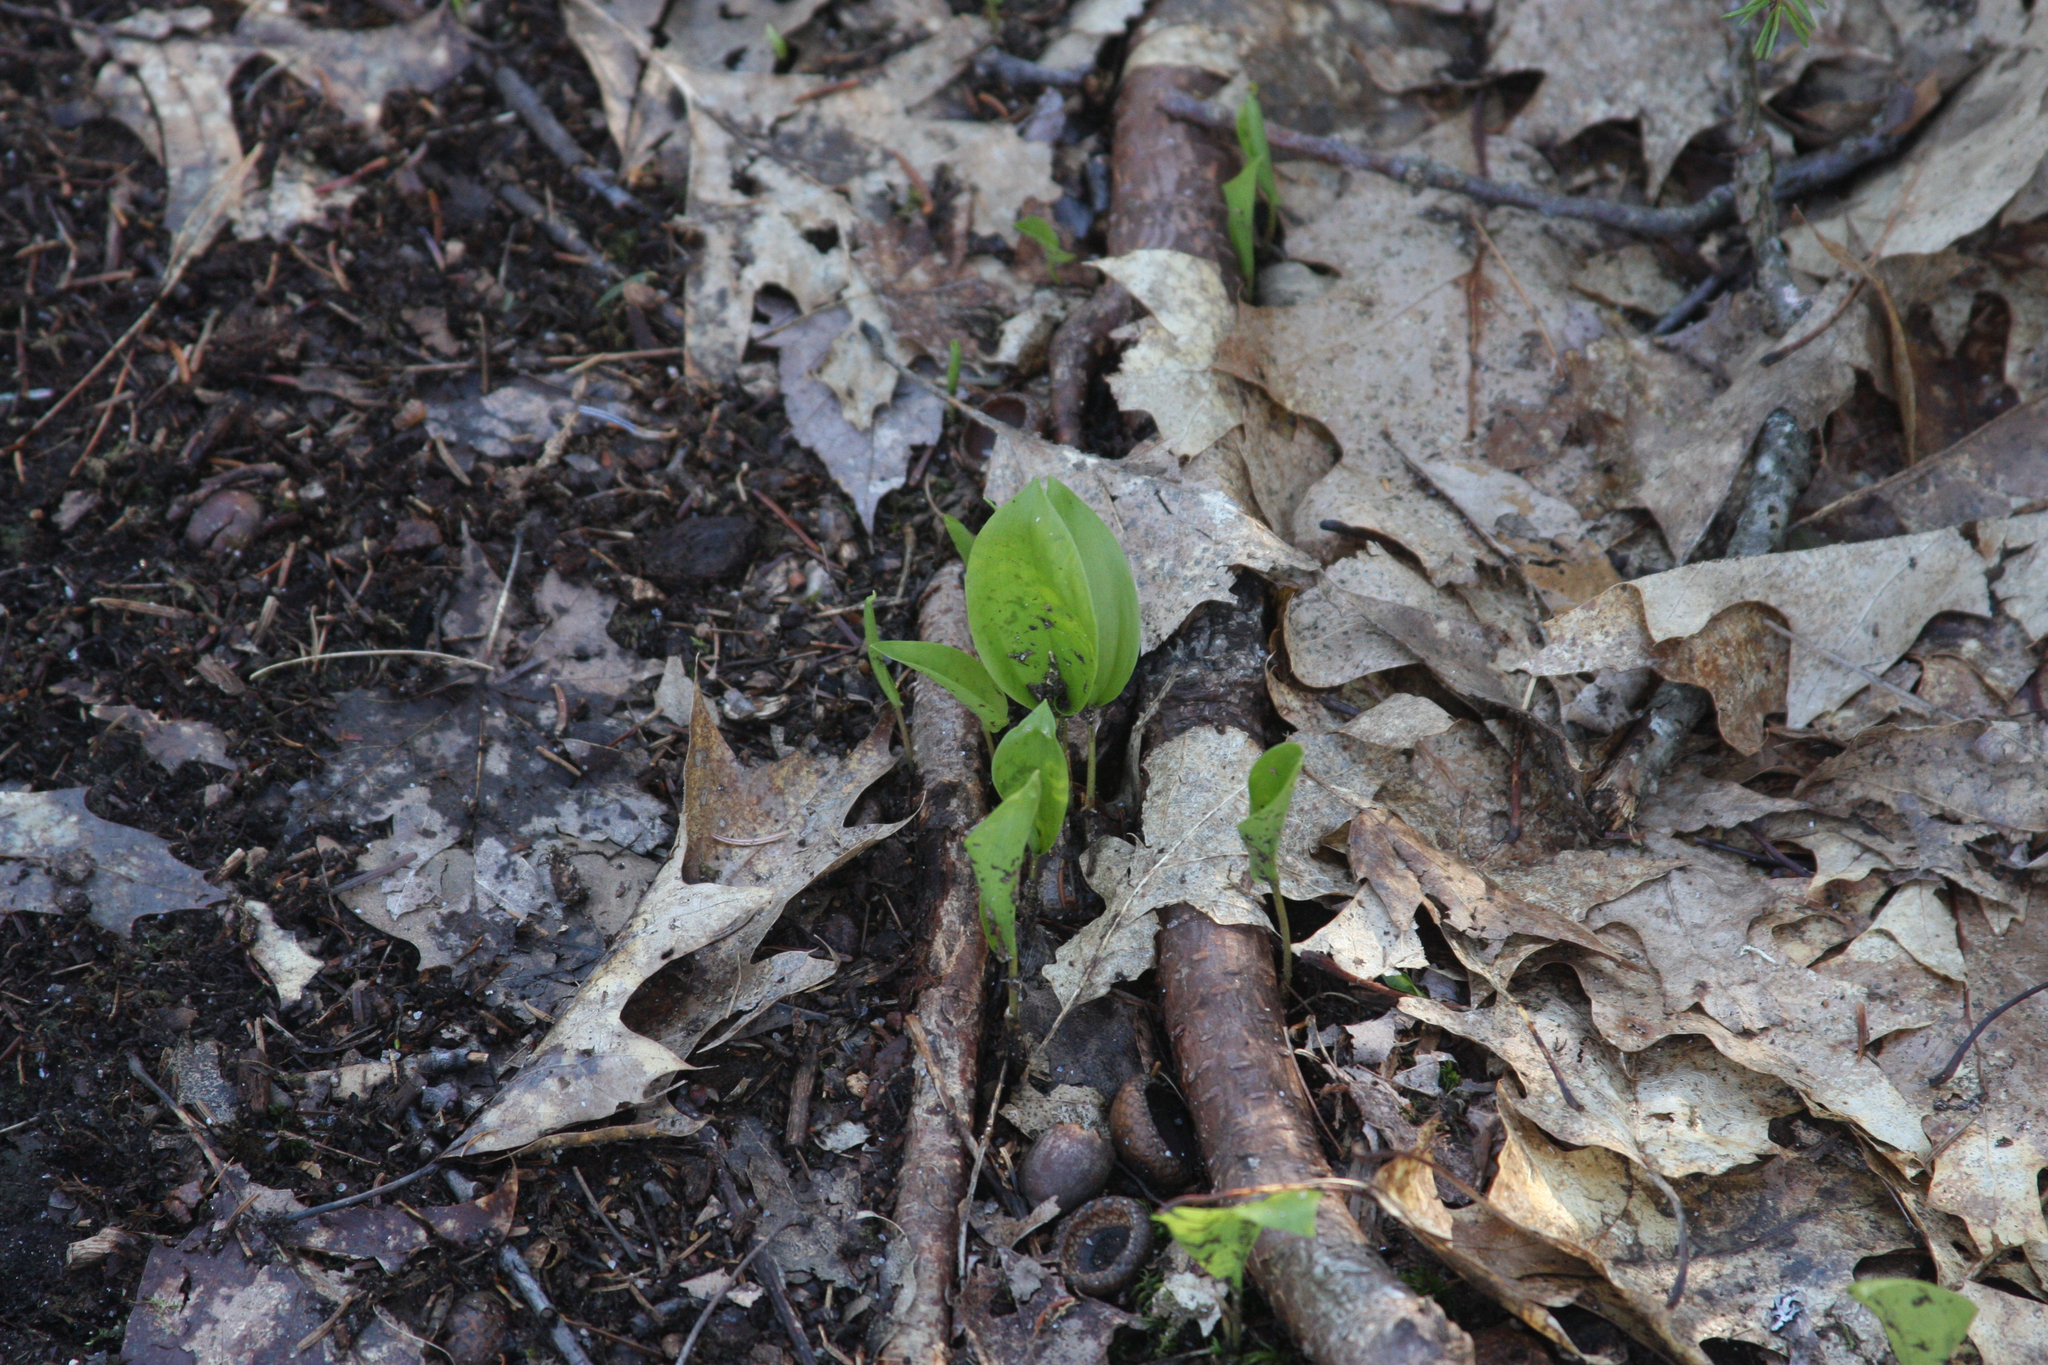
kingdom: Plantae
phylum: Tracheophyta
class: Liliopsida
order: Asparagales
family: Asparagaceae
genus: Maianthemum
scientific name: Maianthemum canadense
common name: False lily-of-the-valley
